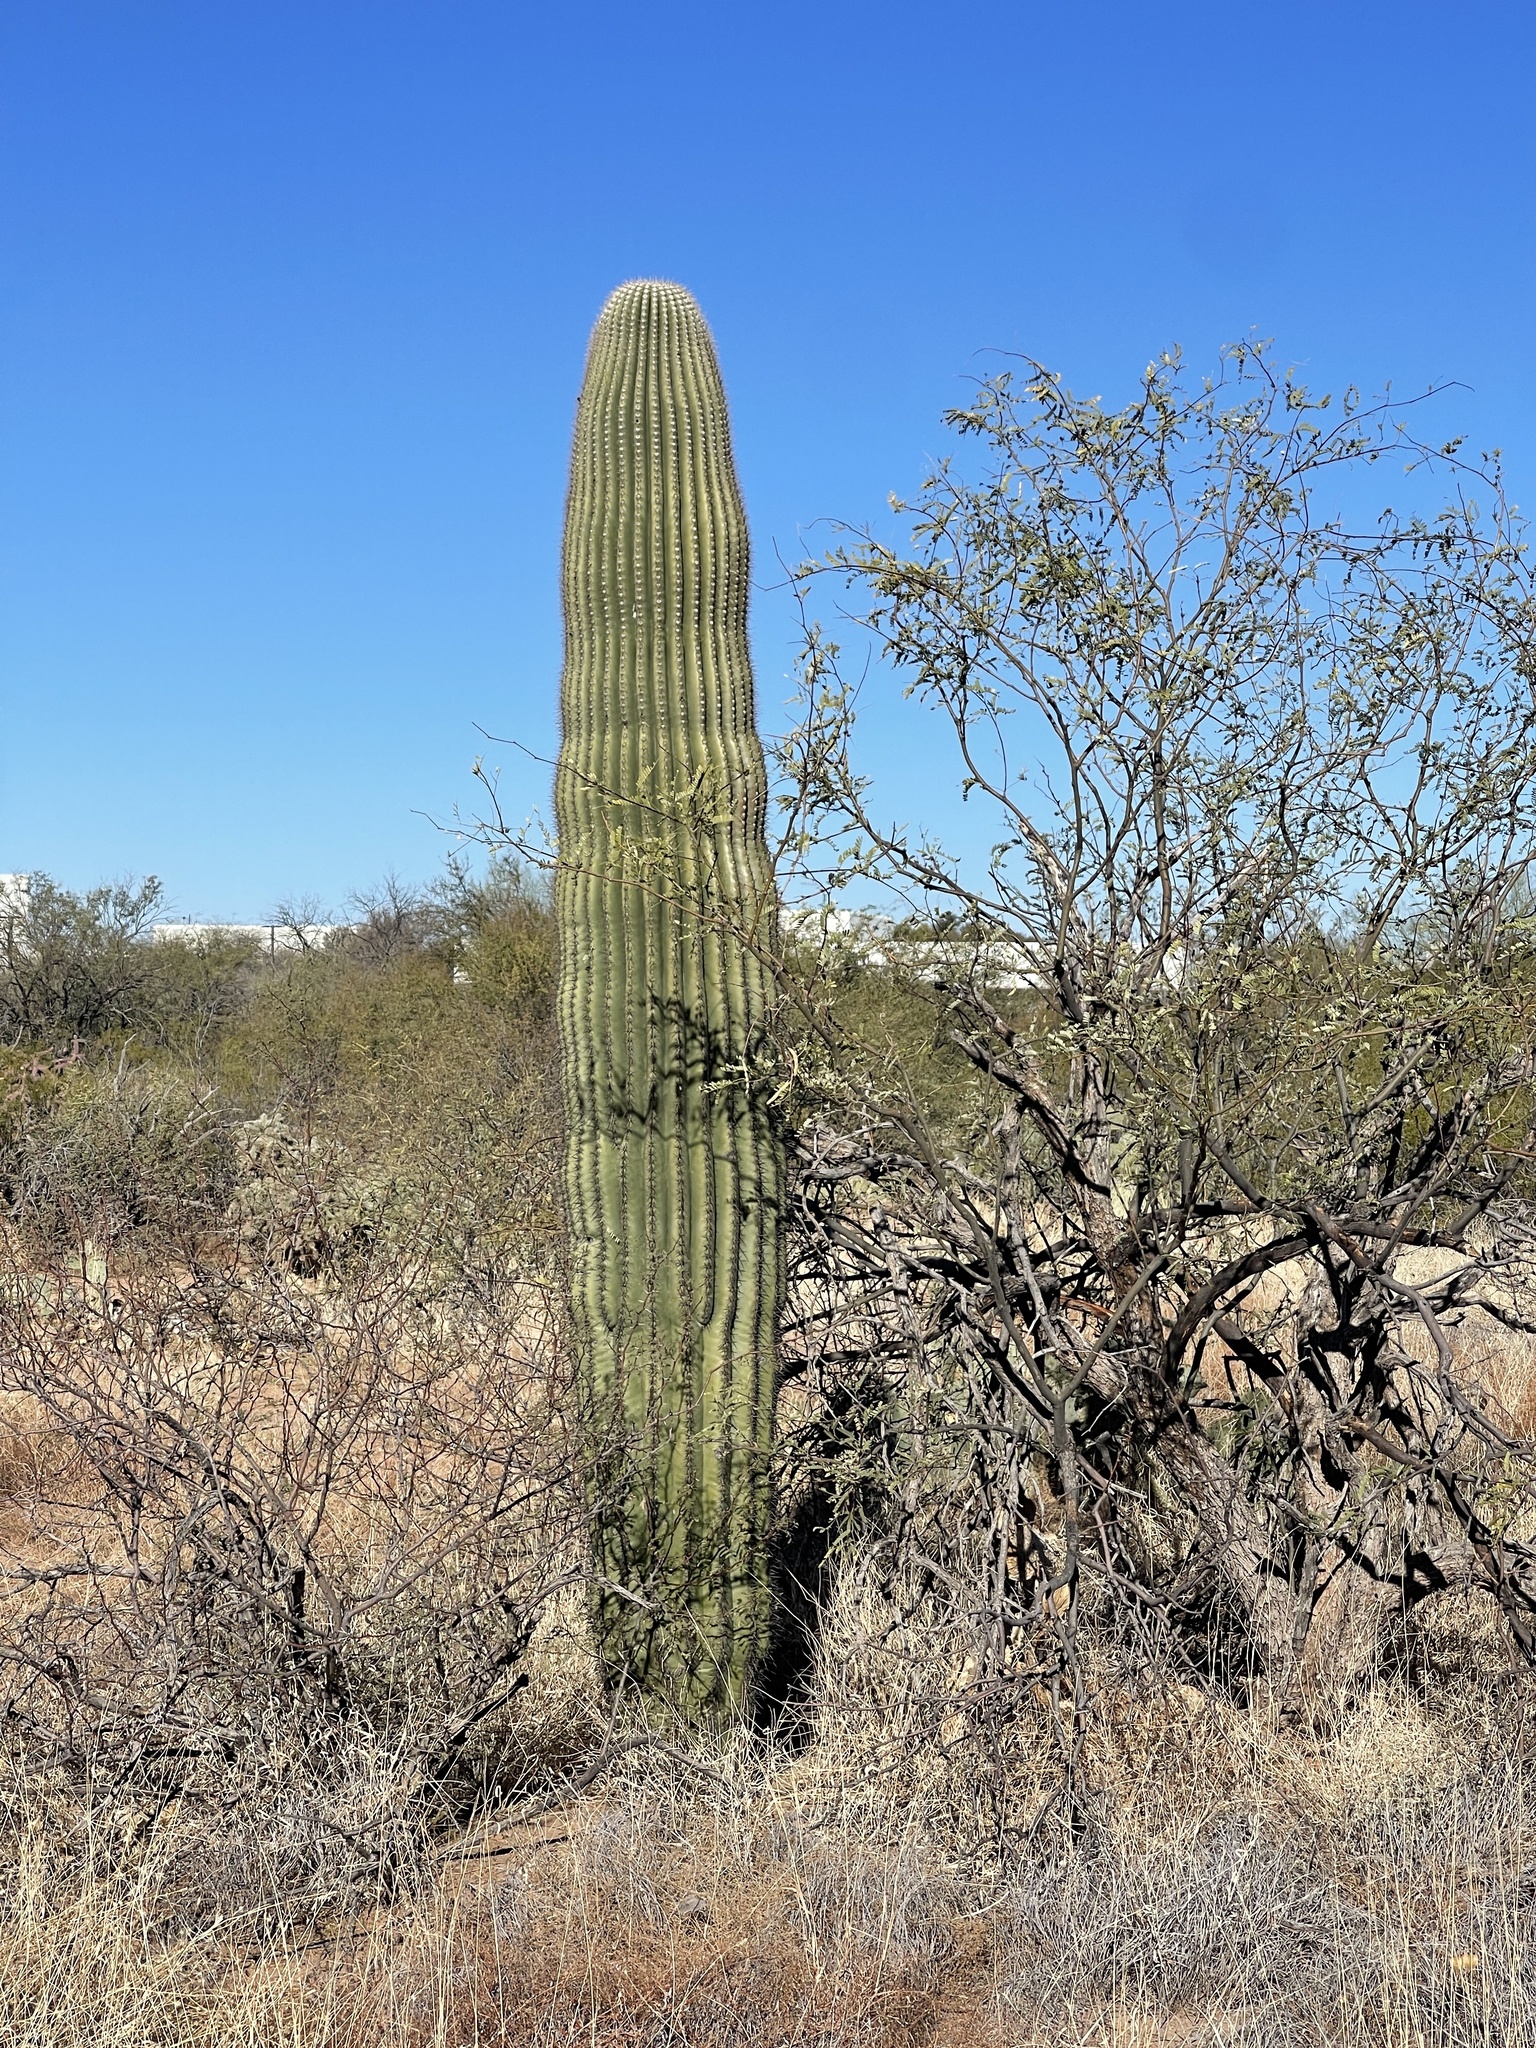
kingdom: Plantae
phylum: Tracheophyta
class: Magnoliopsida
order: Caryophyllales
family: Cactaceae
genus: Carnegiea
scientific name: Carnegiea gigantea
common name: Saguaro
